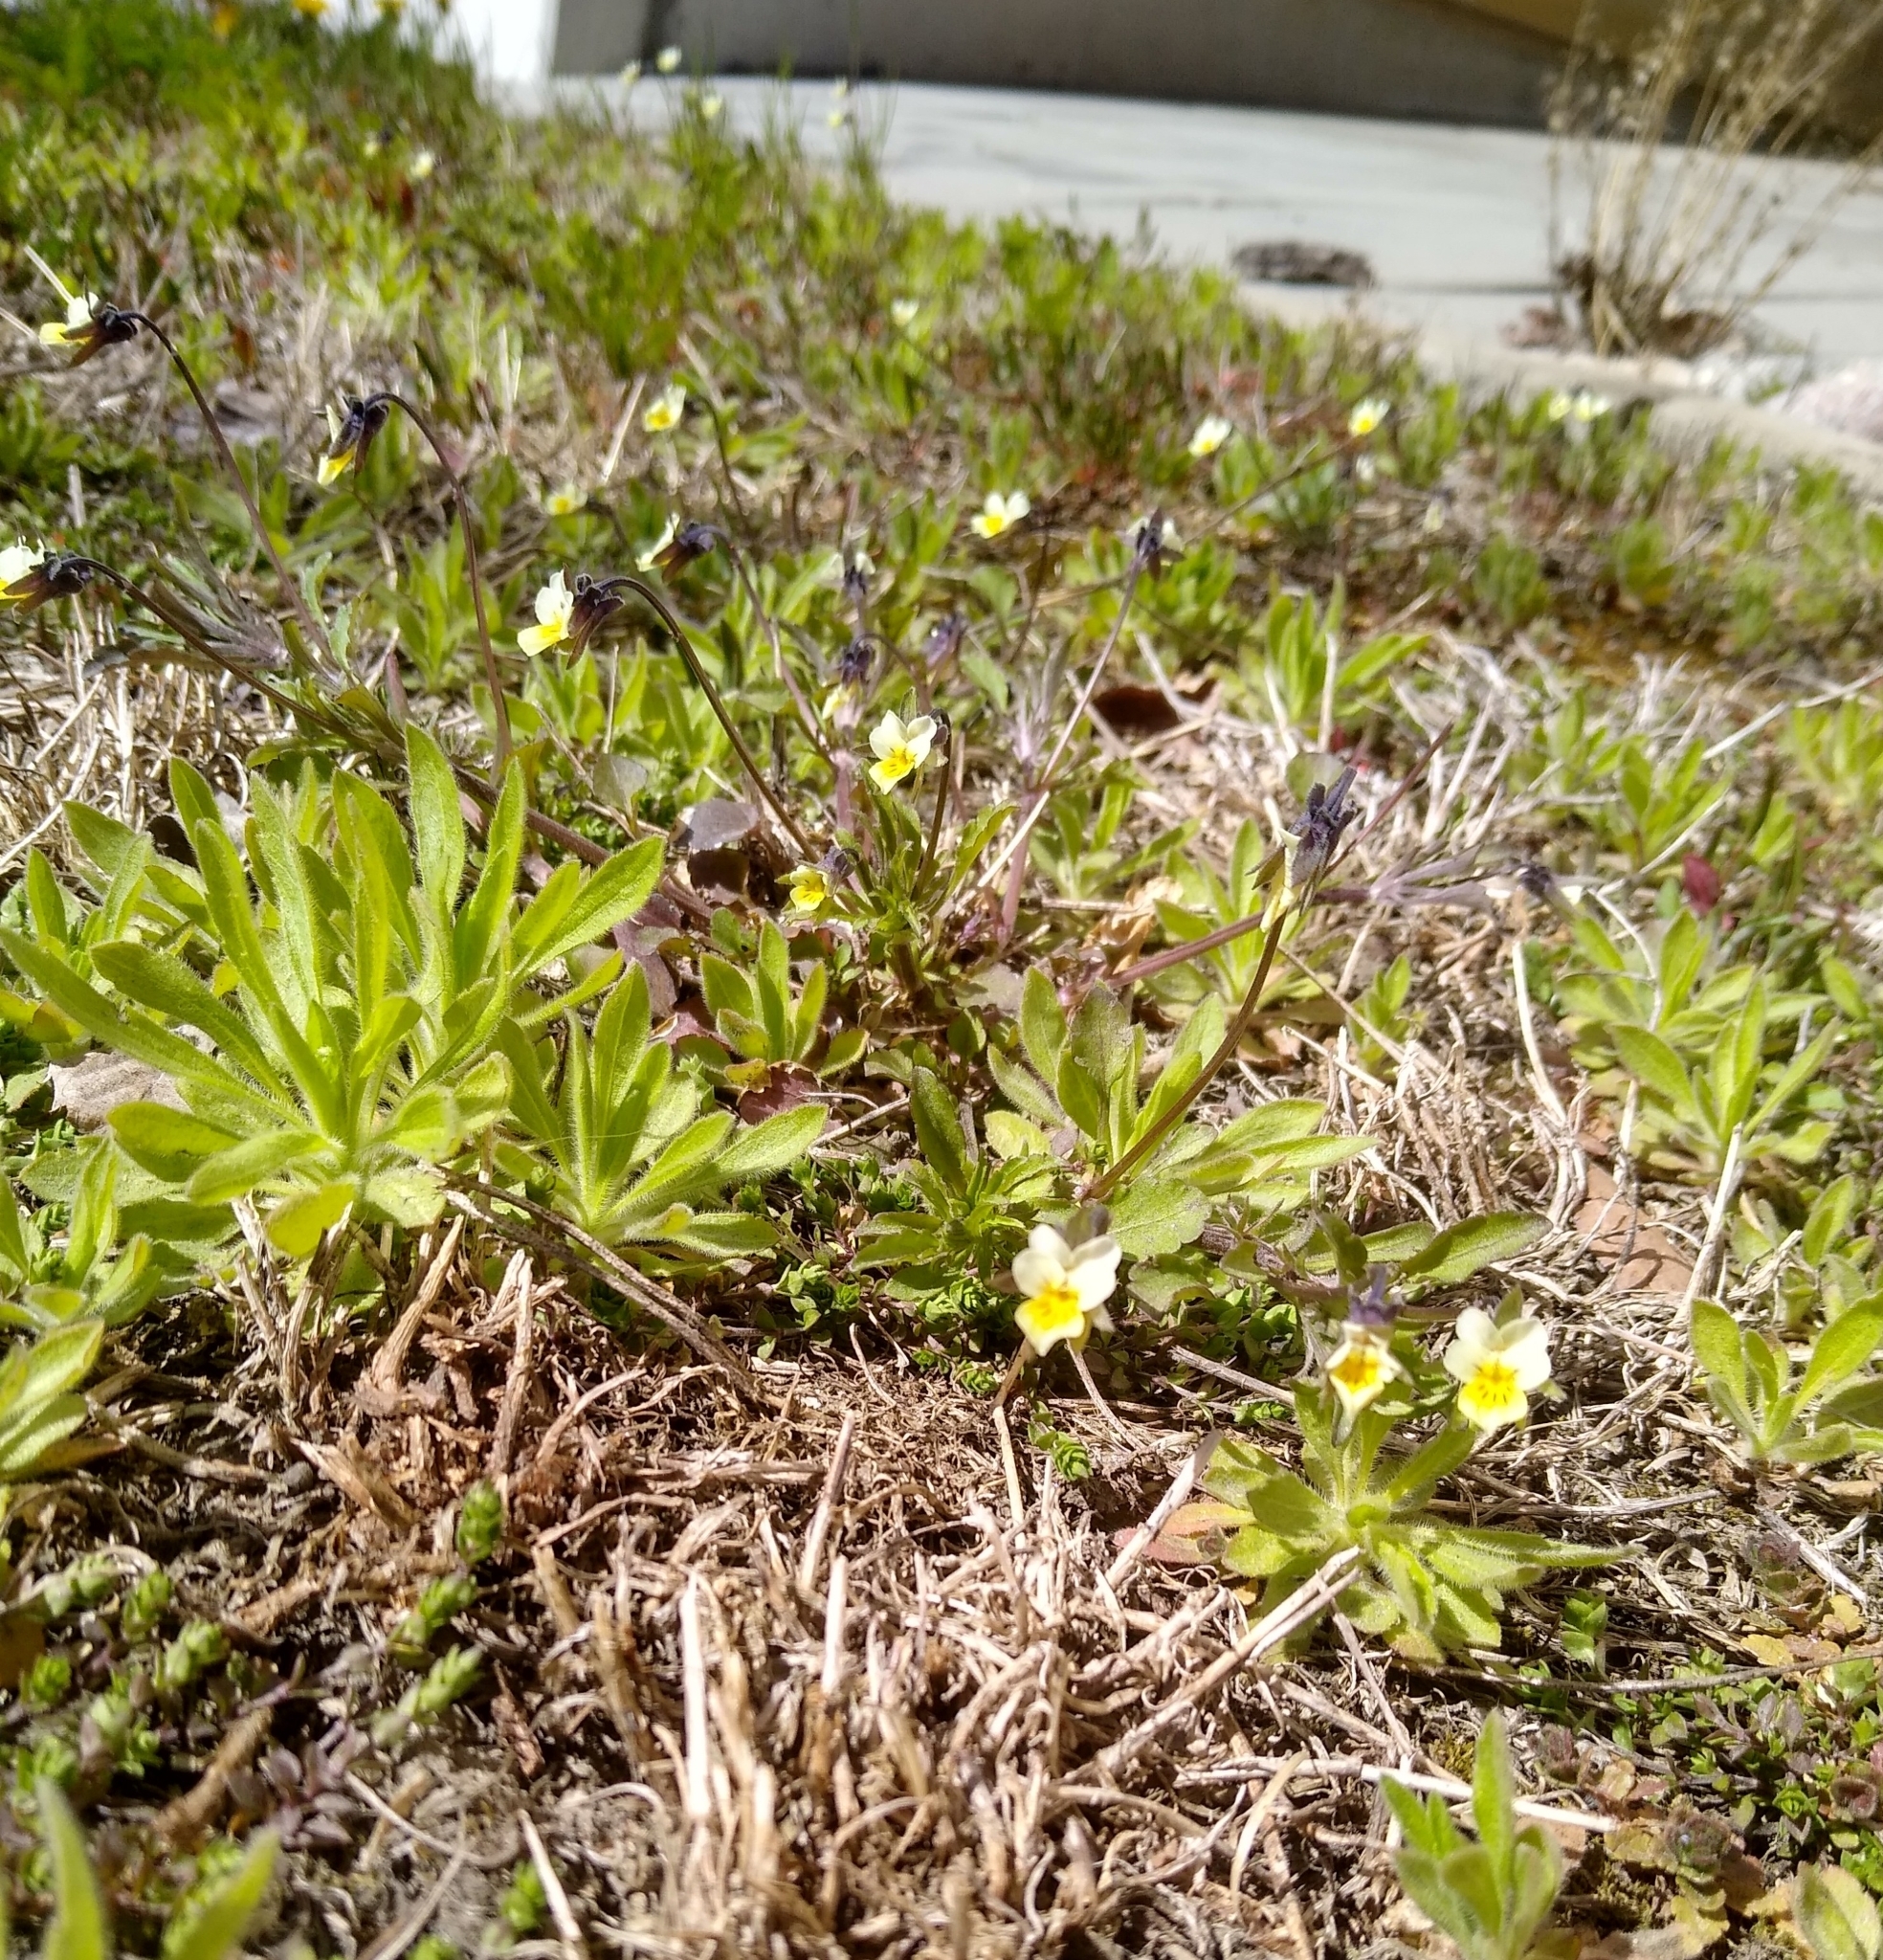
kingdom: Plantae
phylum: Tracheophyta
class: Magnoliopsida
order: Malpighiales
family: Violaceae
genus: Viola
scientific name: Viola arvensis
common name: Field pansy
